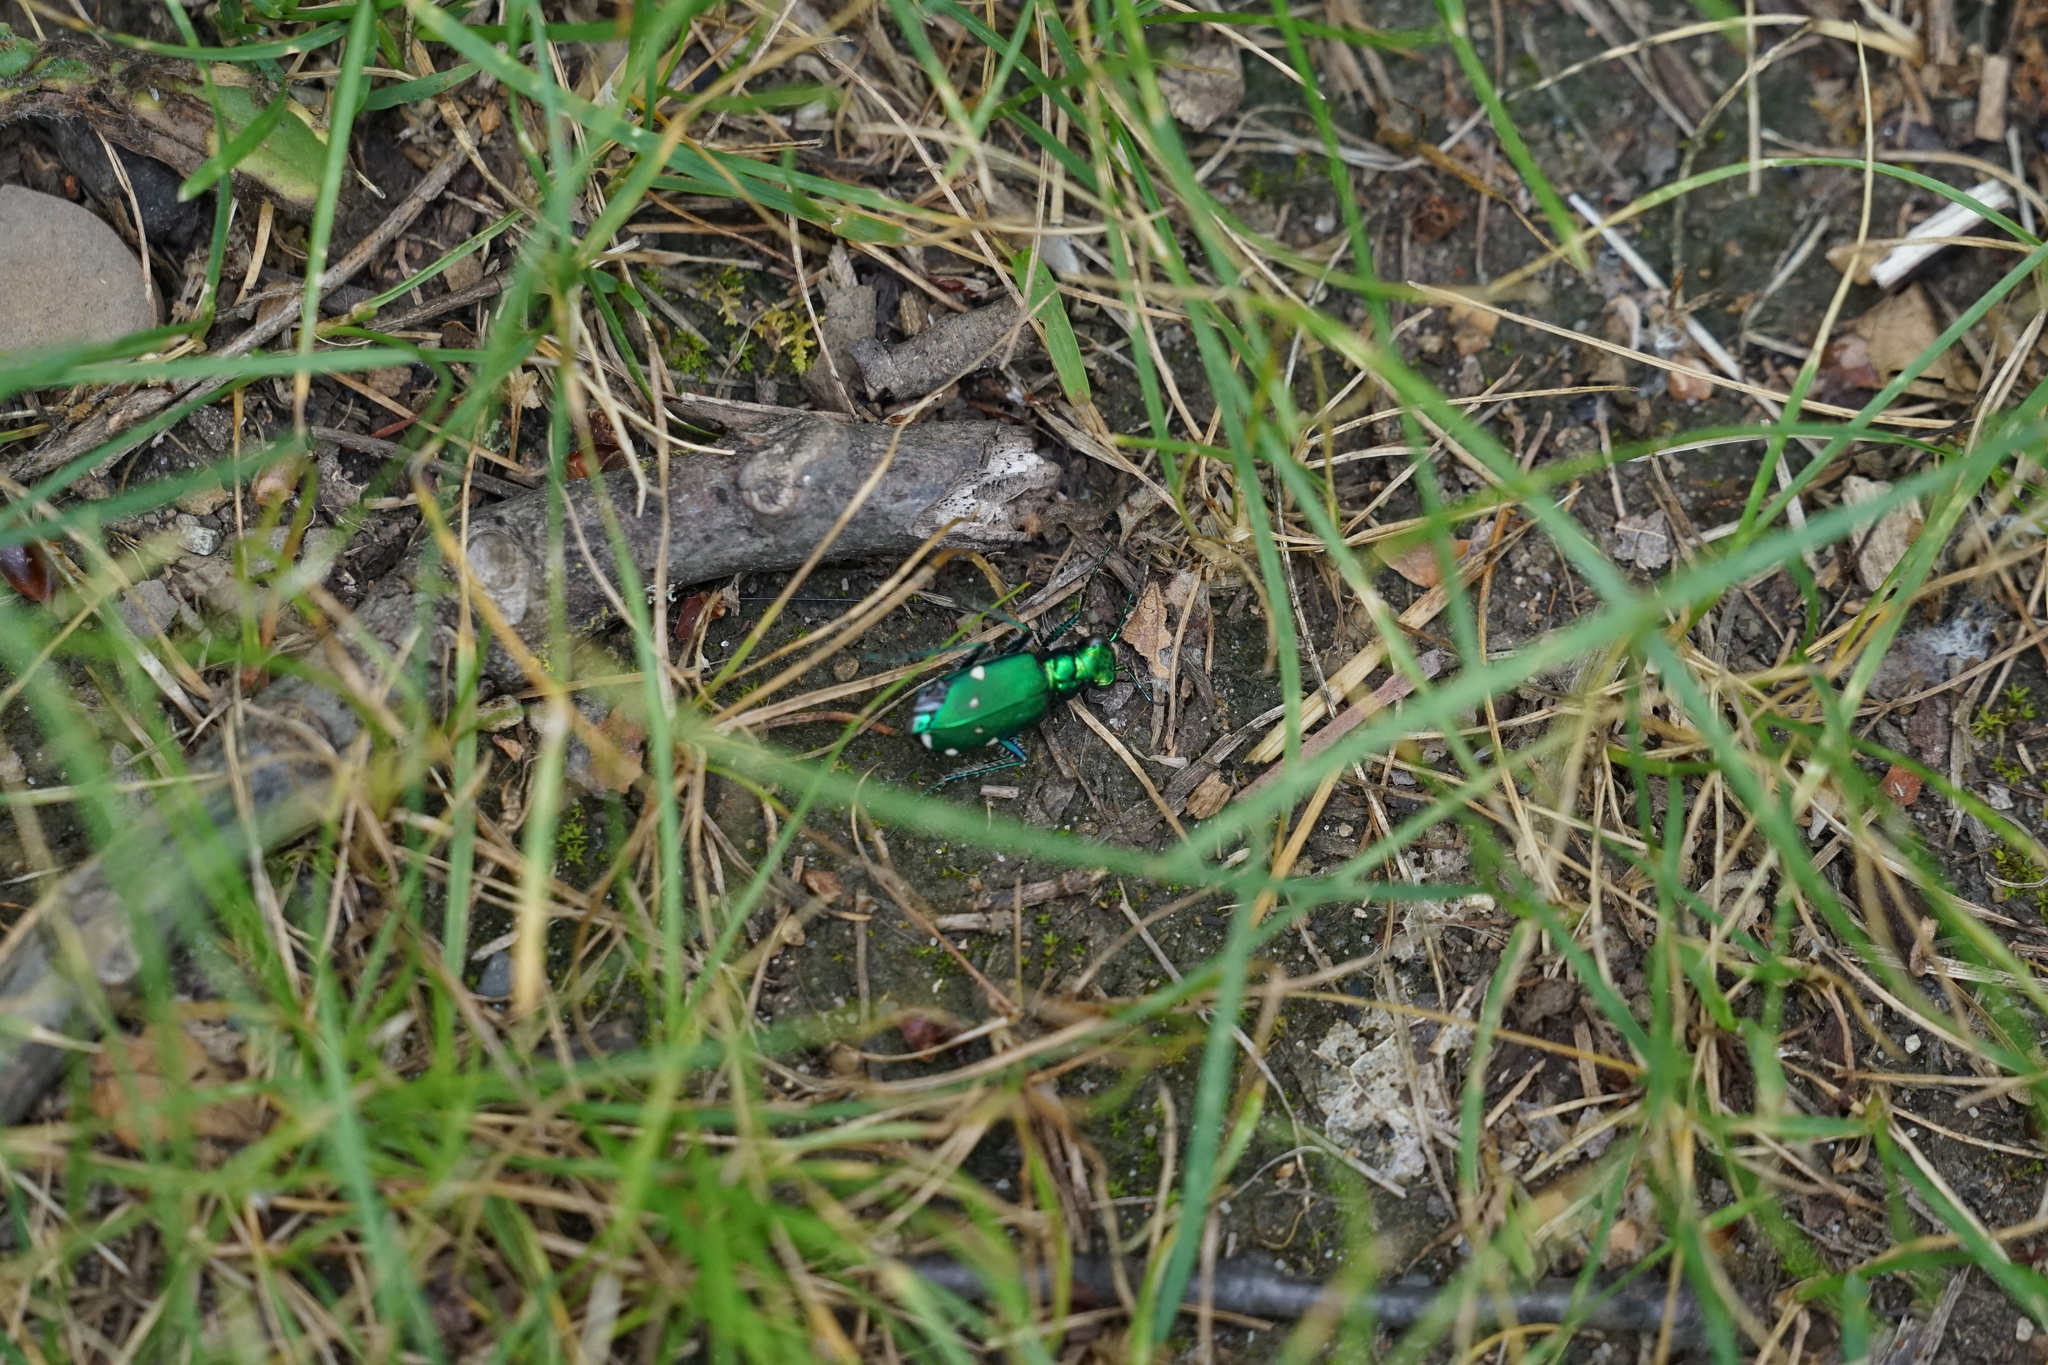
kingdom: Animalia
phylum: Arthropoda
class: Insecta
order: Coleoptera
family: Carabidae
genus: Cicindela
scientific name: Cicindela sexguttata
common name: Six-spotted tiger beetle
